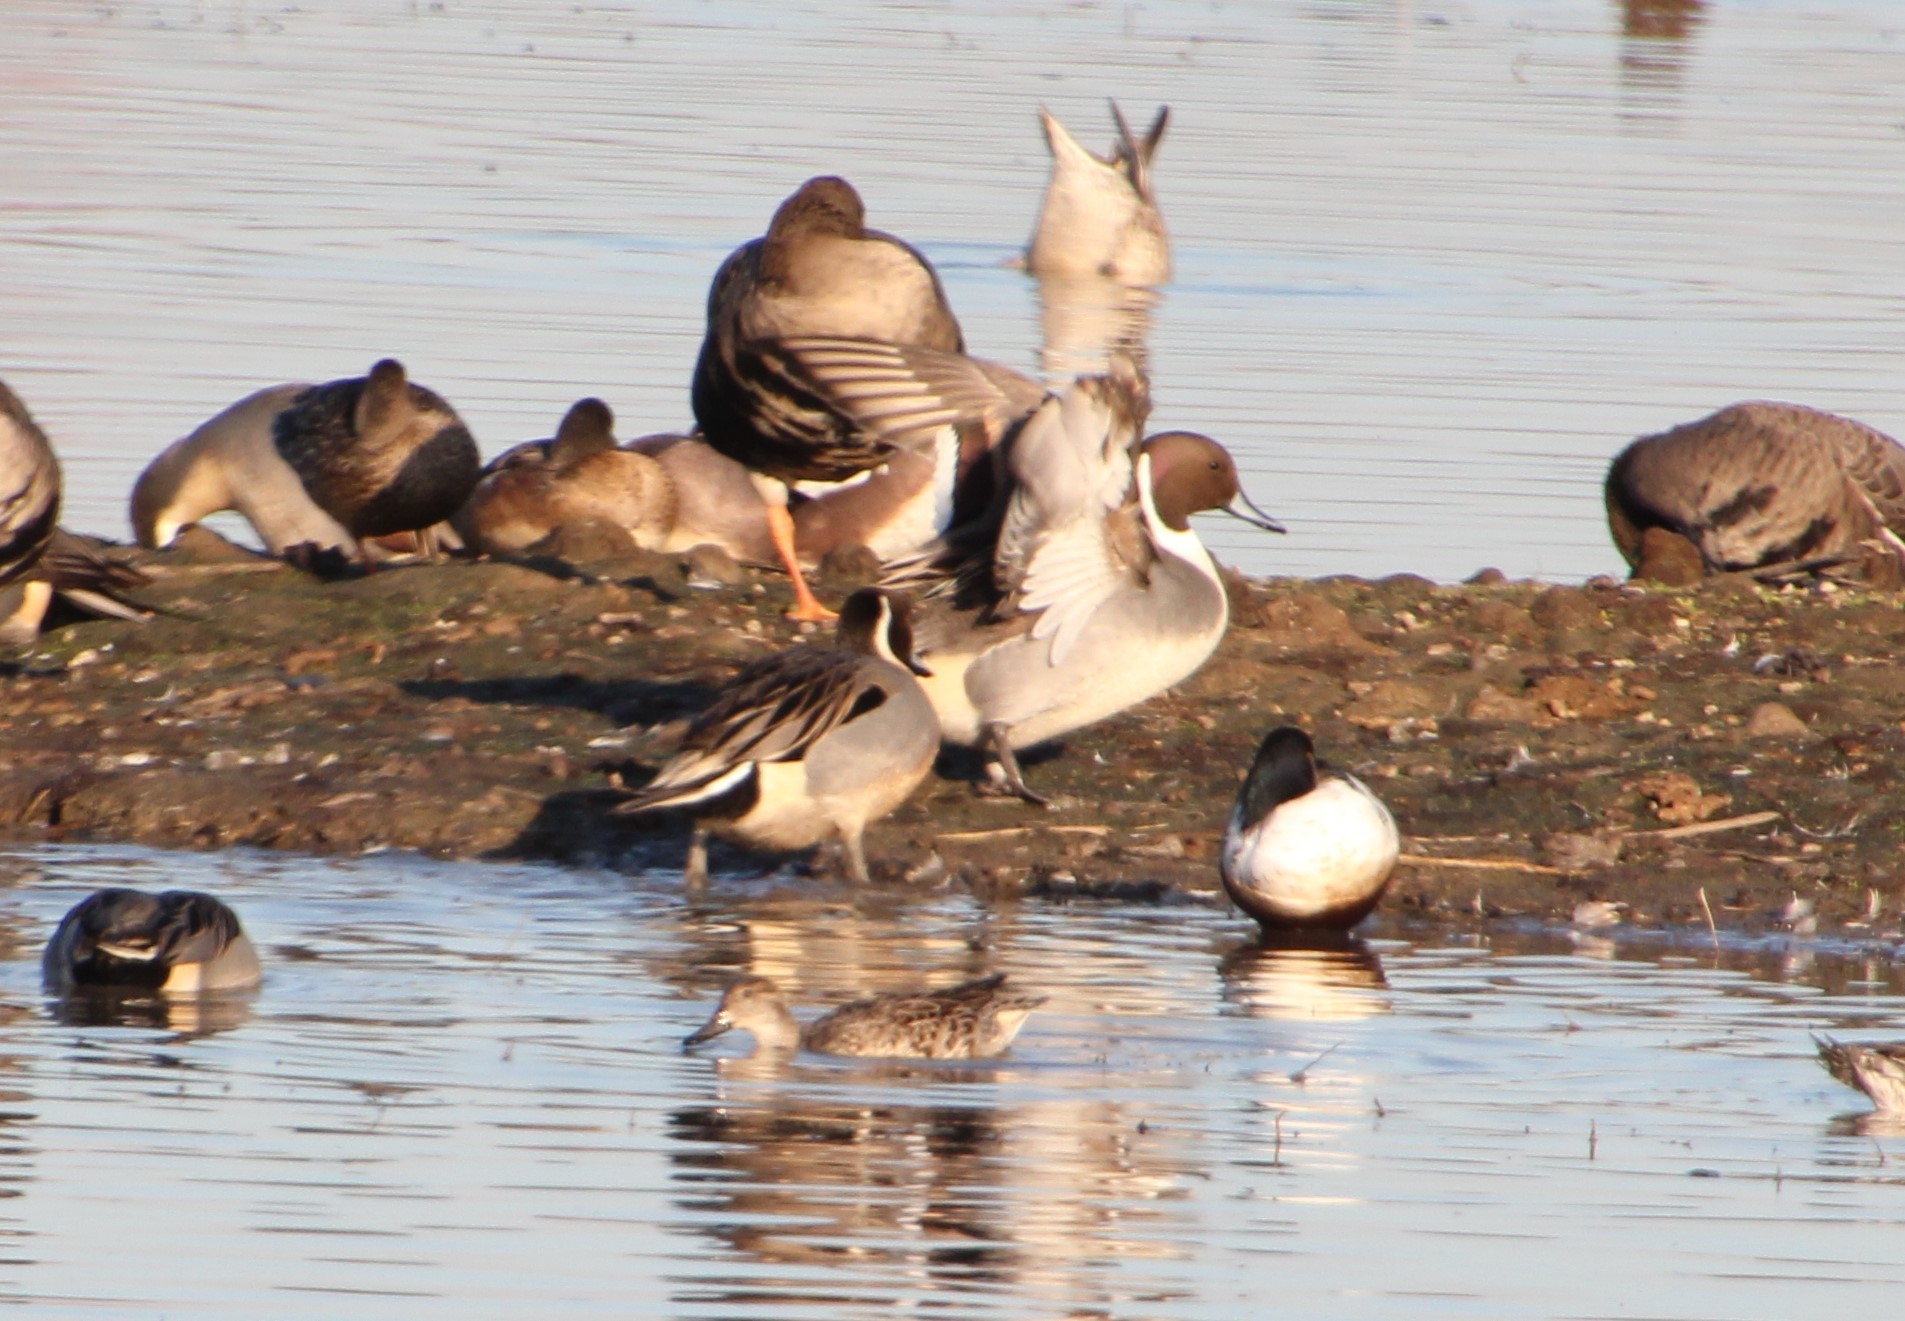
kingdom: Animalia
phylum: Chordata
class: Aves
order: Anseriformes
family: Anatidae
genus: Anas
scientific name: Anas acuta
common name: Northern pintail
